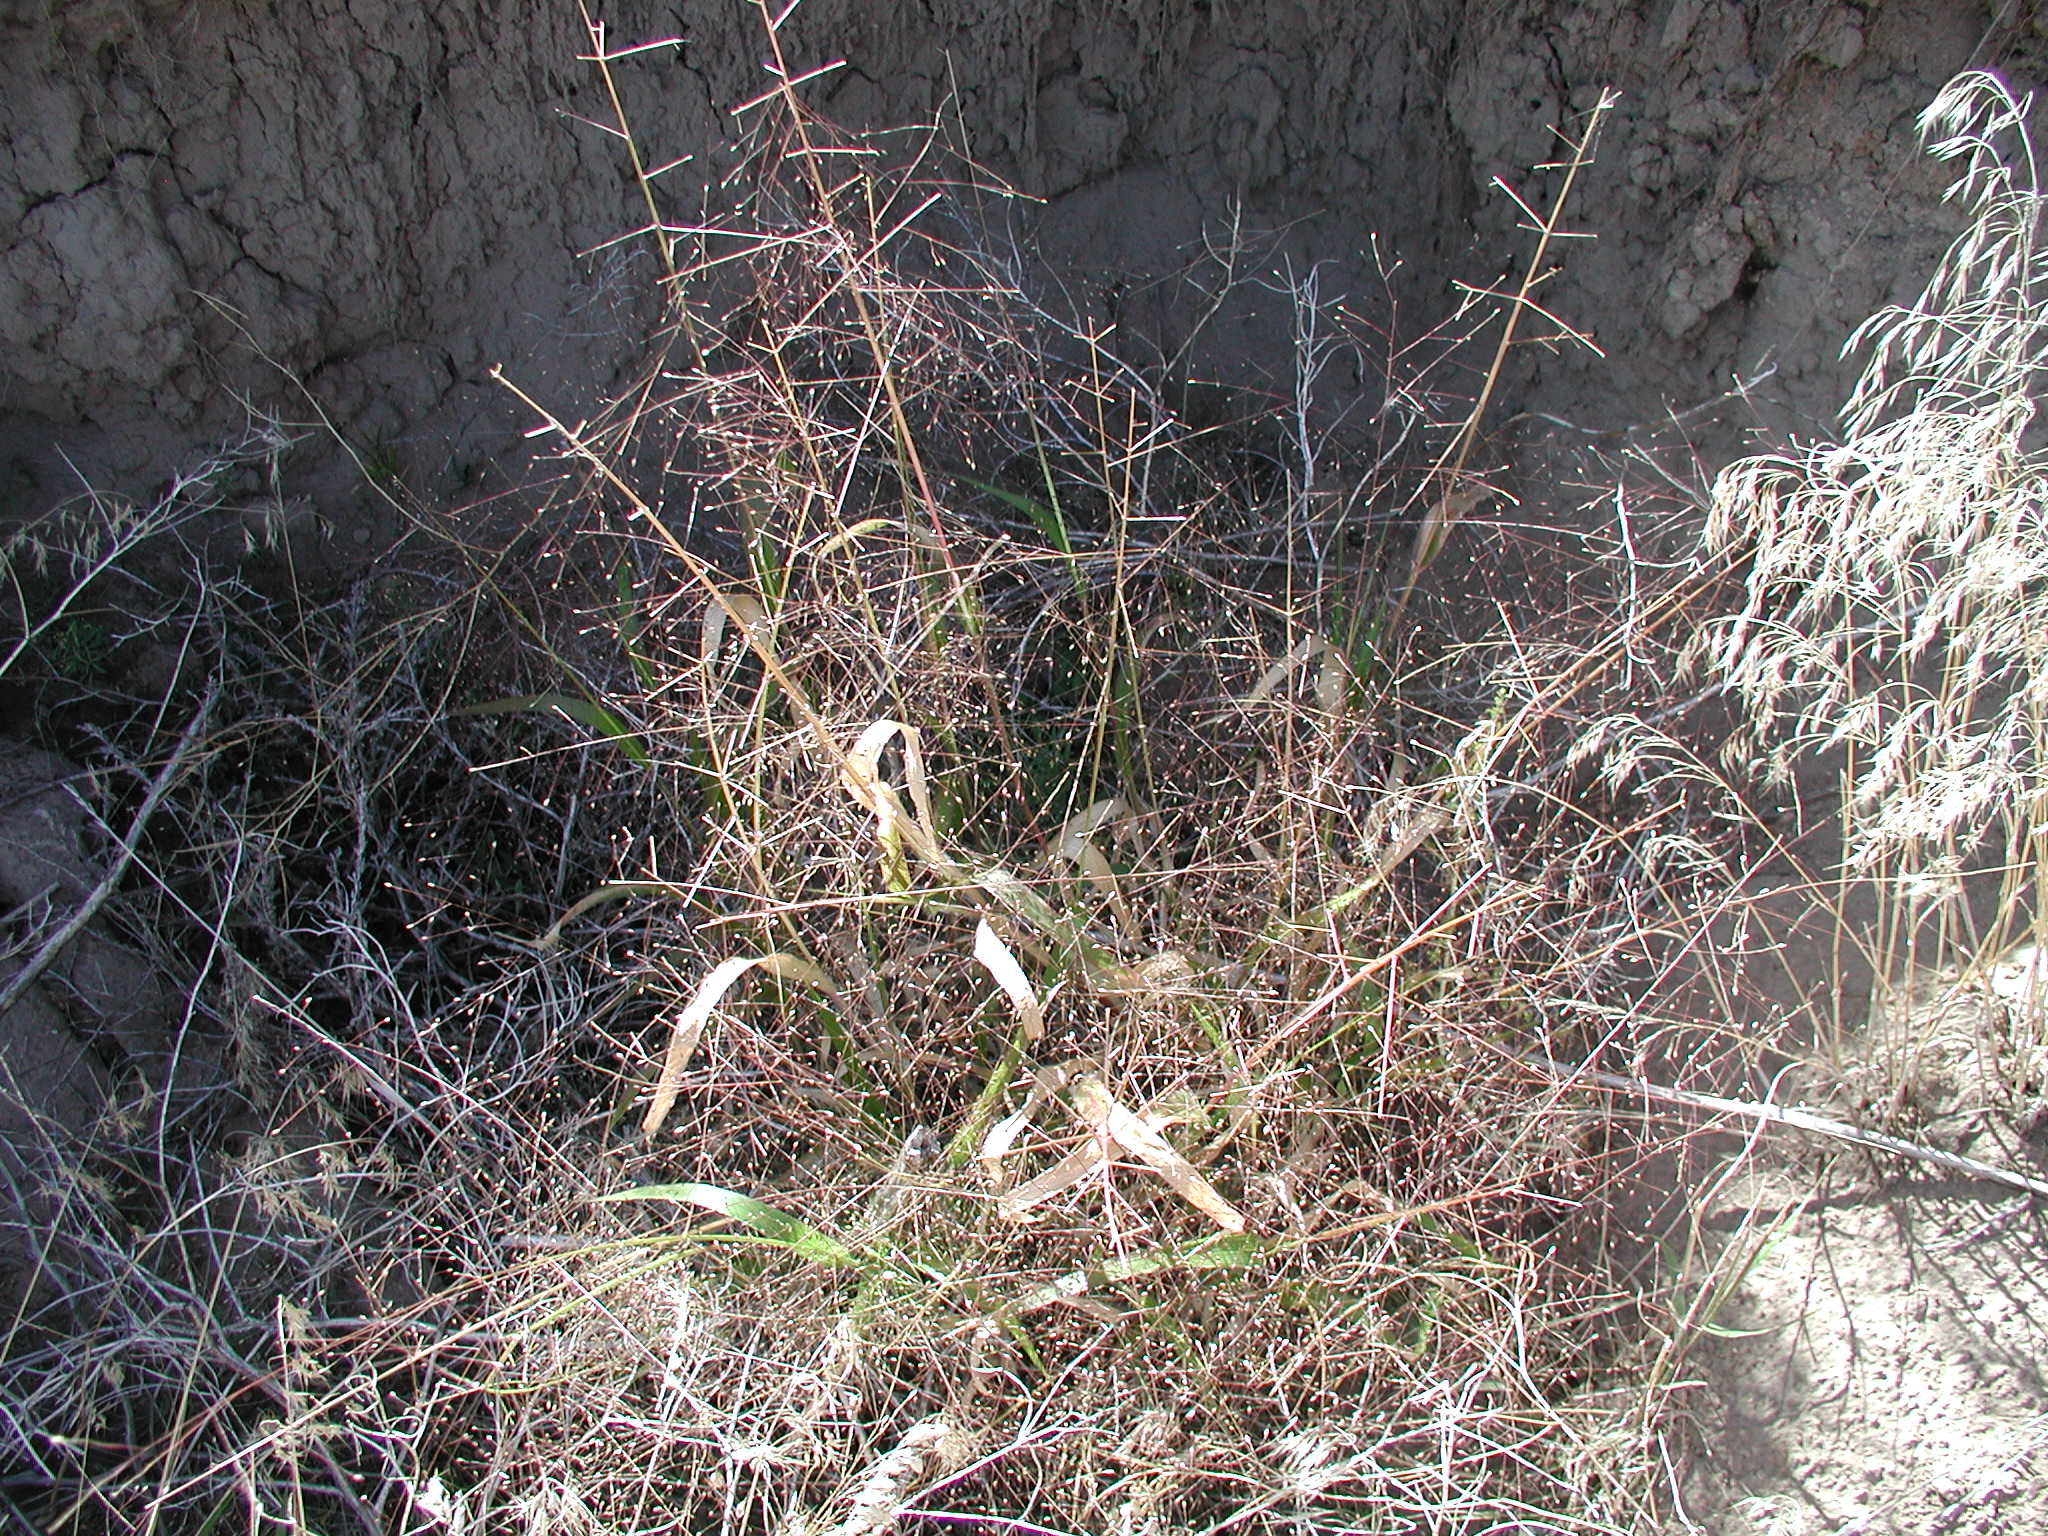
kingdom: Plantae
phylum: Tracheophyta
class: Liliopsida
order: Poales
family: Poaceae
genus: Panicum
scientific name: Panicum capillare
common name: Witch-grass
